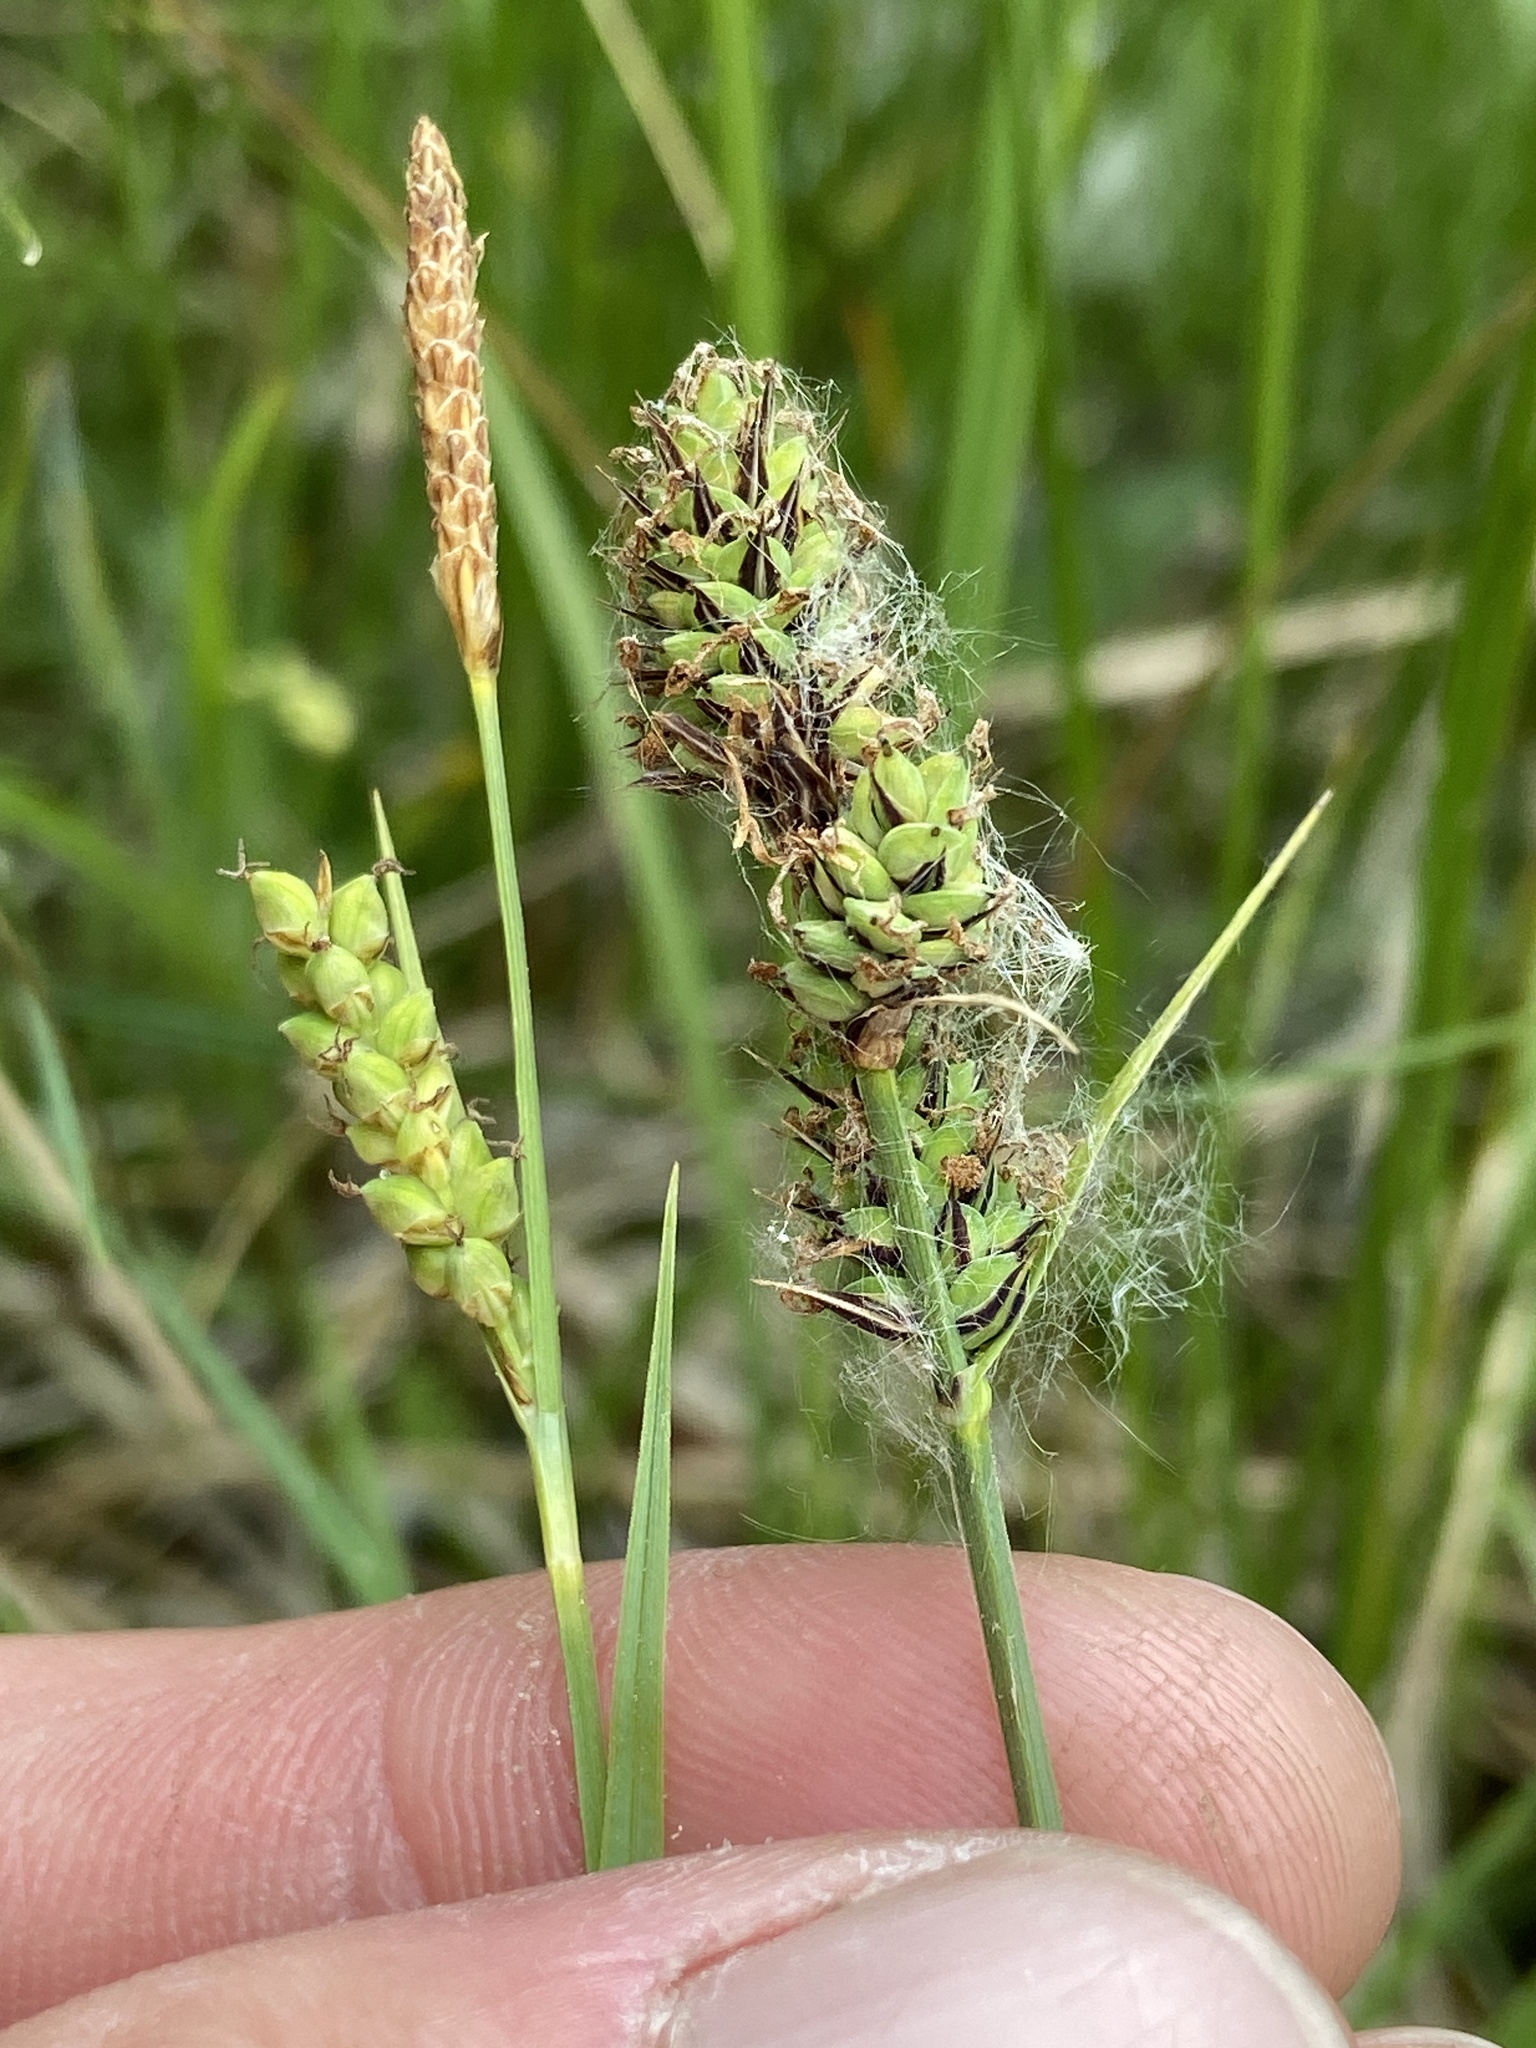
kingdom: Plantae
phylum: Tracheophyta
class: Liliopsida
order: Poales
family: Cyperaceae
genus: Carex
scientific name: Carex tetanica
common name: Rigid sedge
